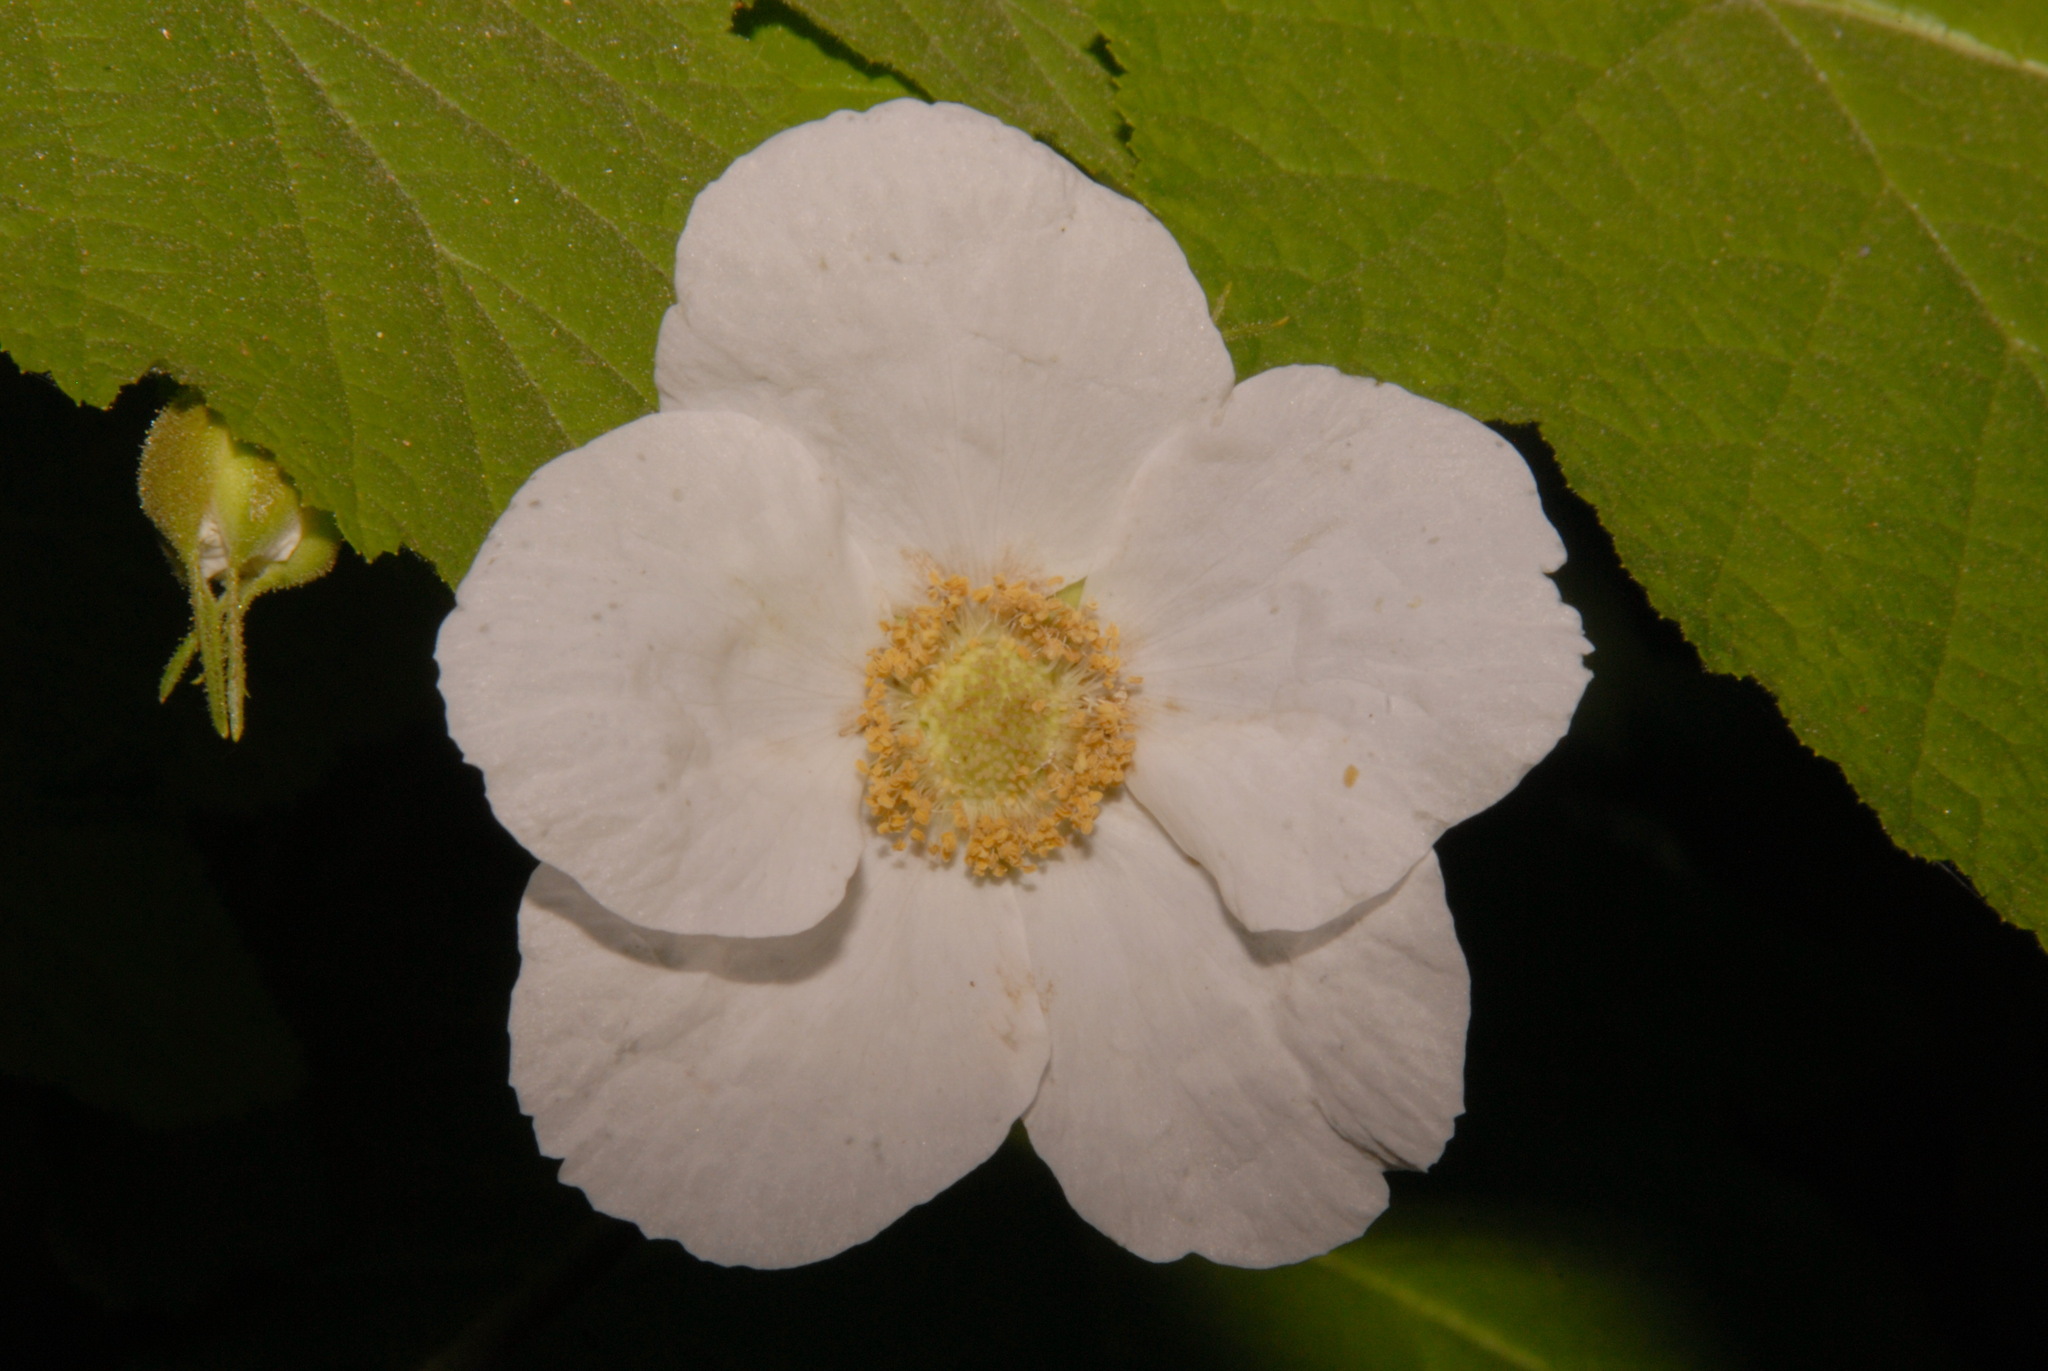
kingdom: Plantae
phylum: Tracheophyta
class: Magnoliopsida
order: Rosales
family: Rosaceae
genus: Rubus
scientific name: Rubus parviflorus
